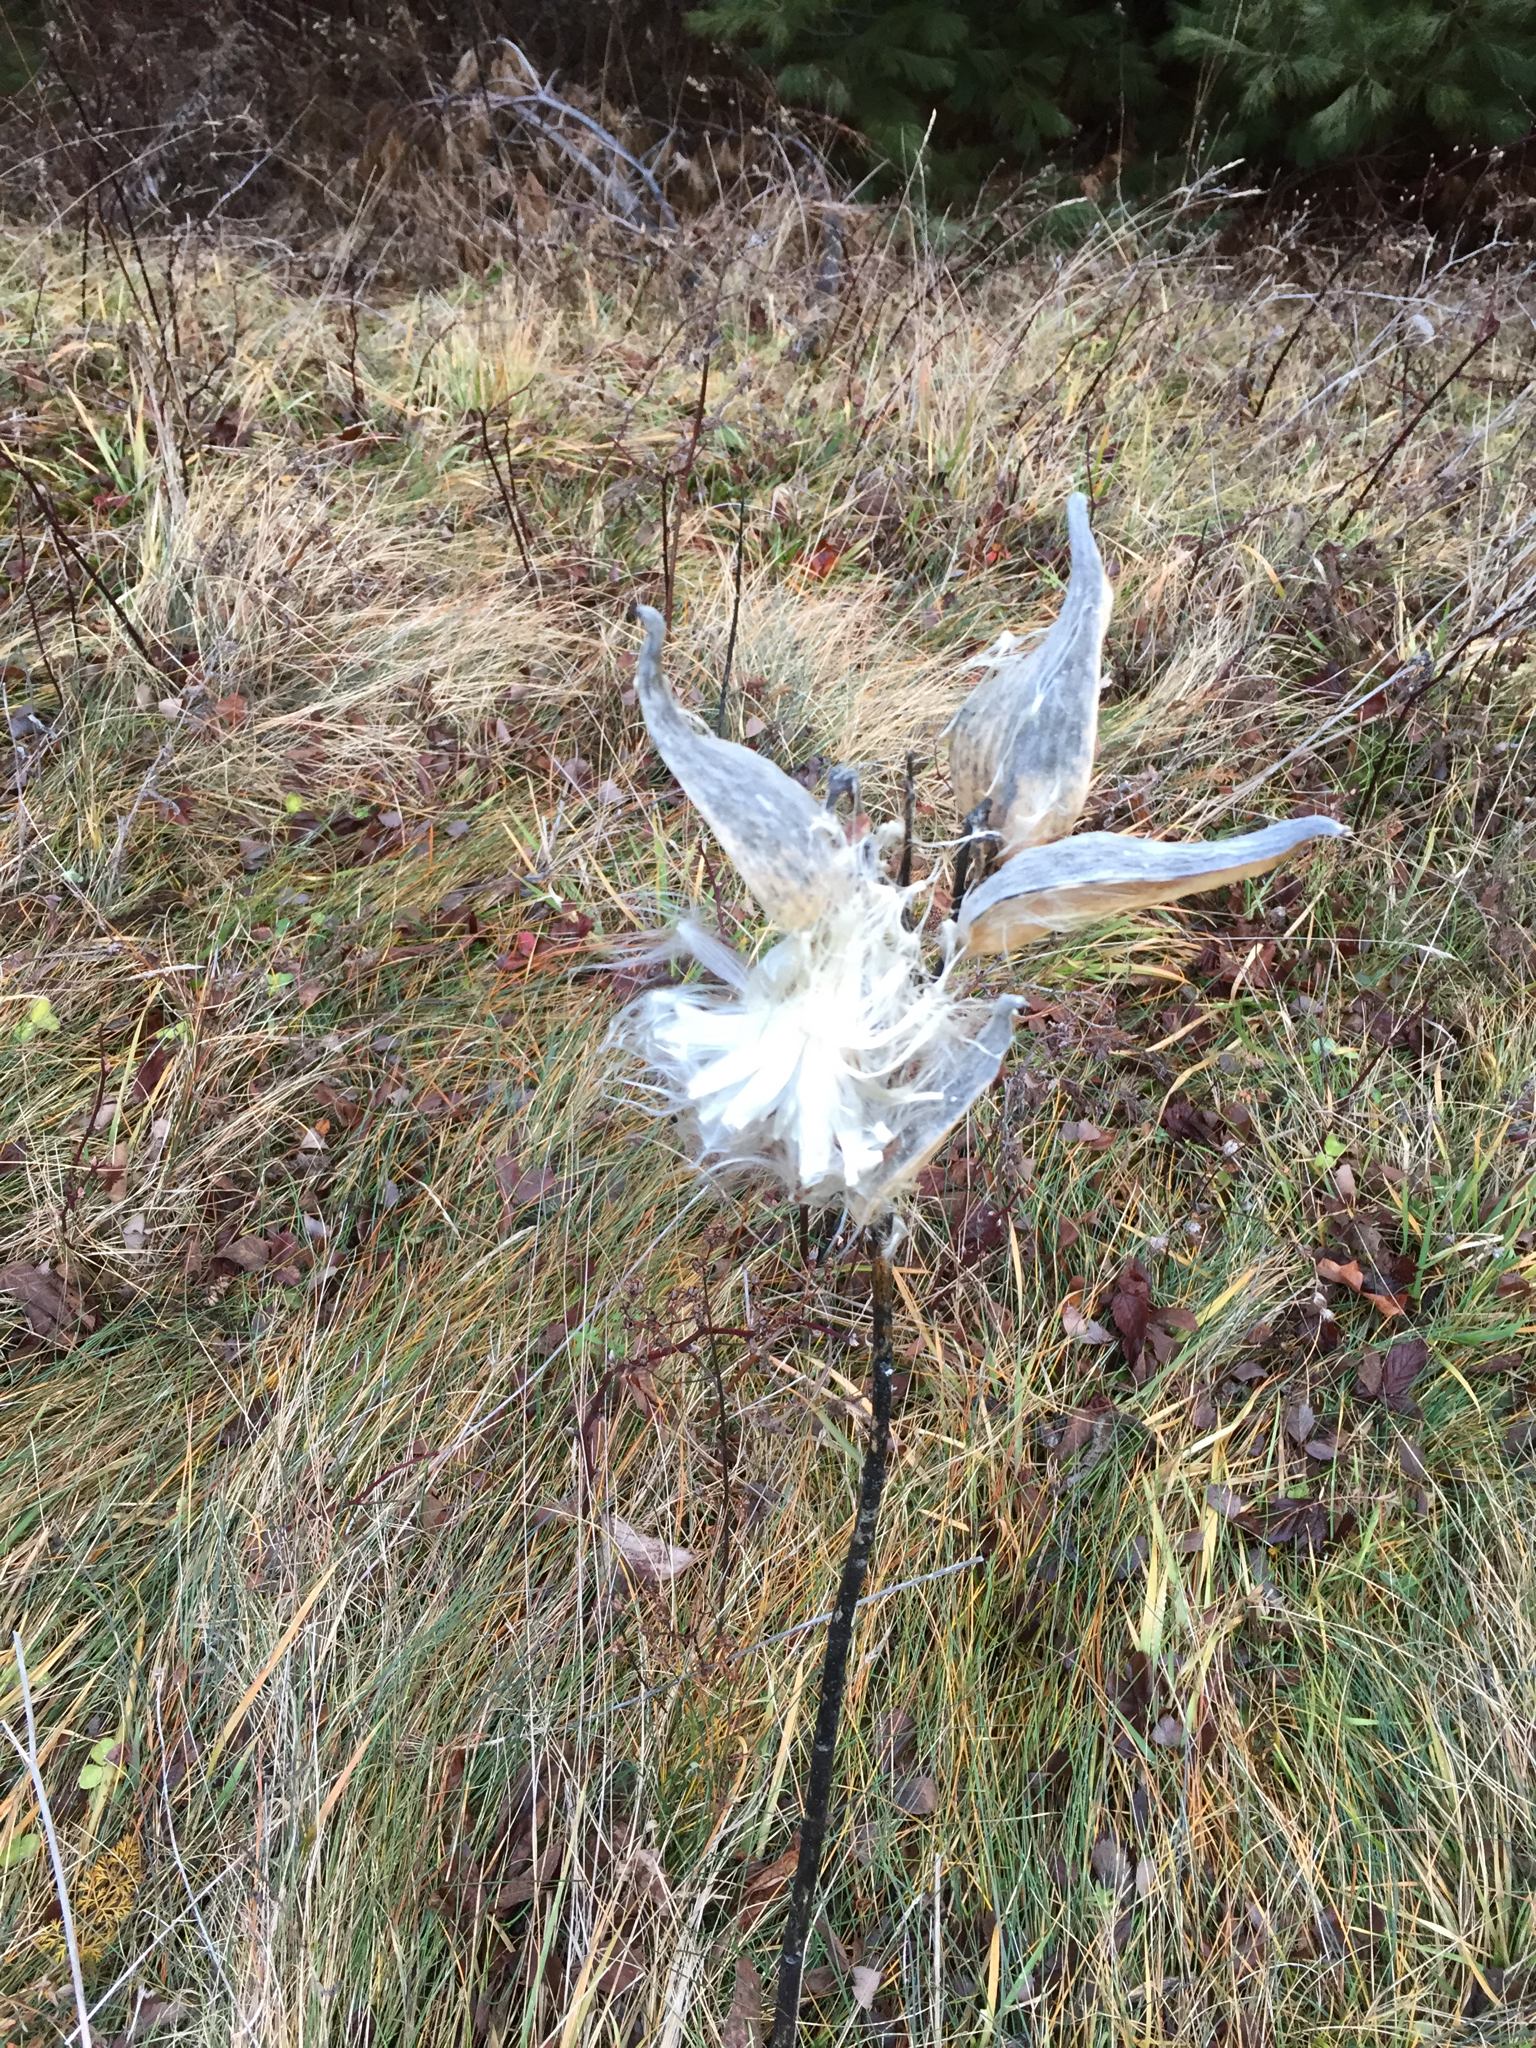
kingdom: Plantae
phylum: Tracheophyta
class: Magnoliopsida
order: Gentianales
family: Apocynaceae
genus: Asclepias
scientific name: Asclepias syriaca
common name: Common milkweed
